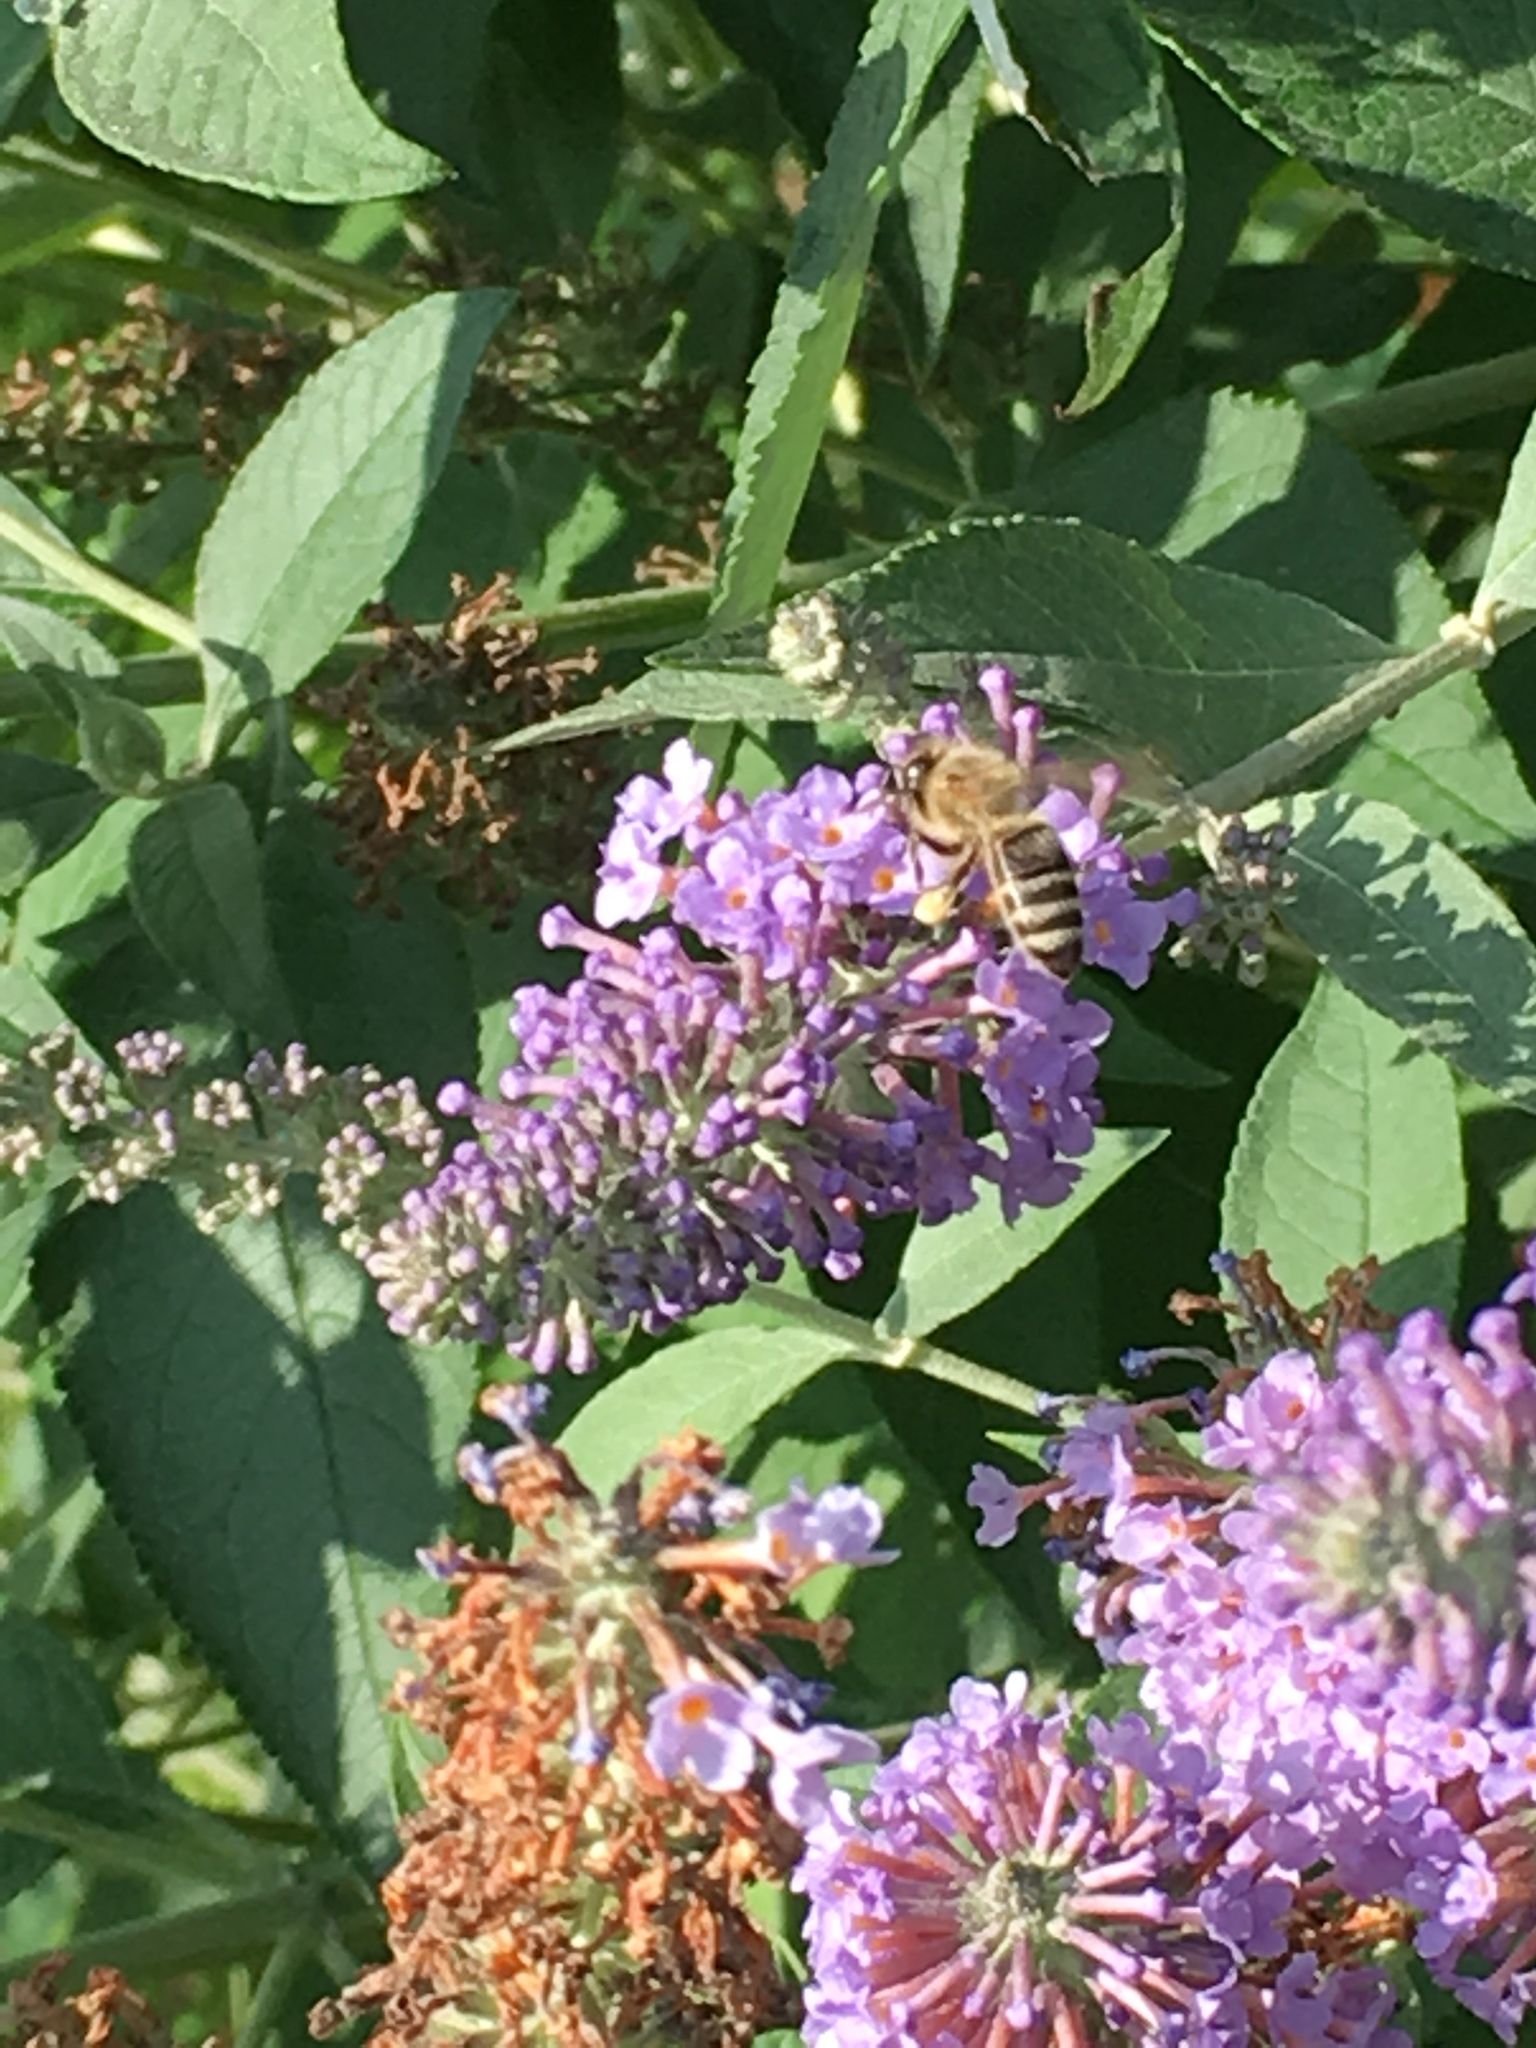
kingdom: Animalia
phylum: Arthropoda
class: Insecta
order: Hymenoptera
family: Apidae
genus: Apis
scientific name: Apis mellifera
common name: Honey bee
